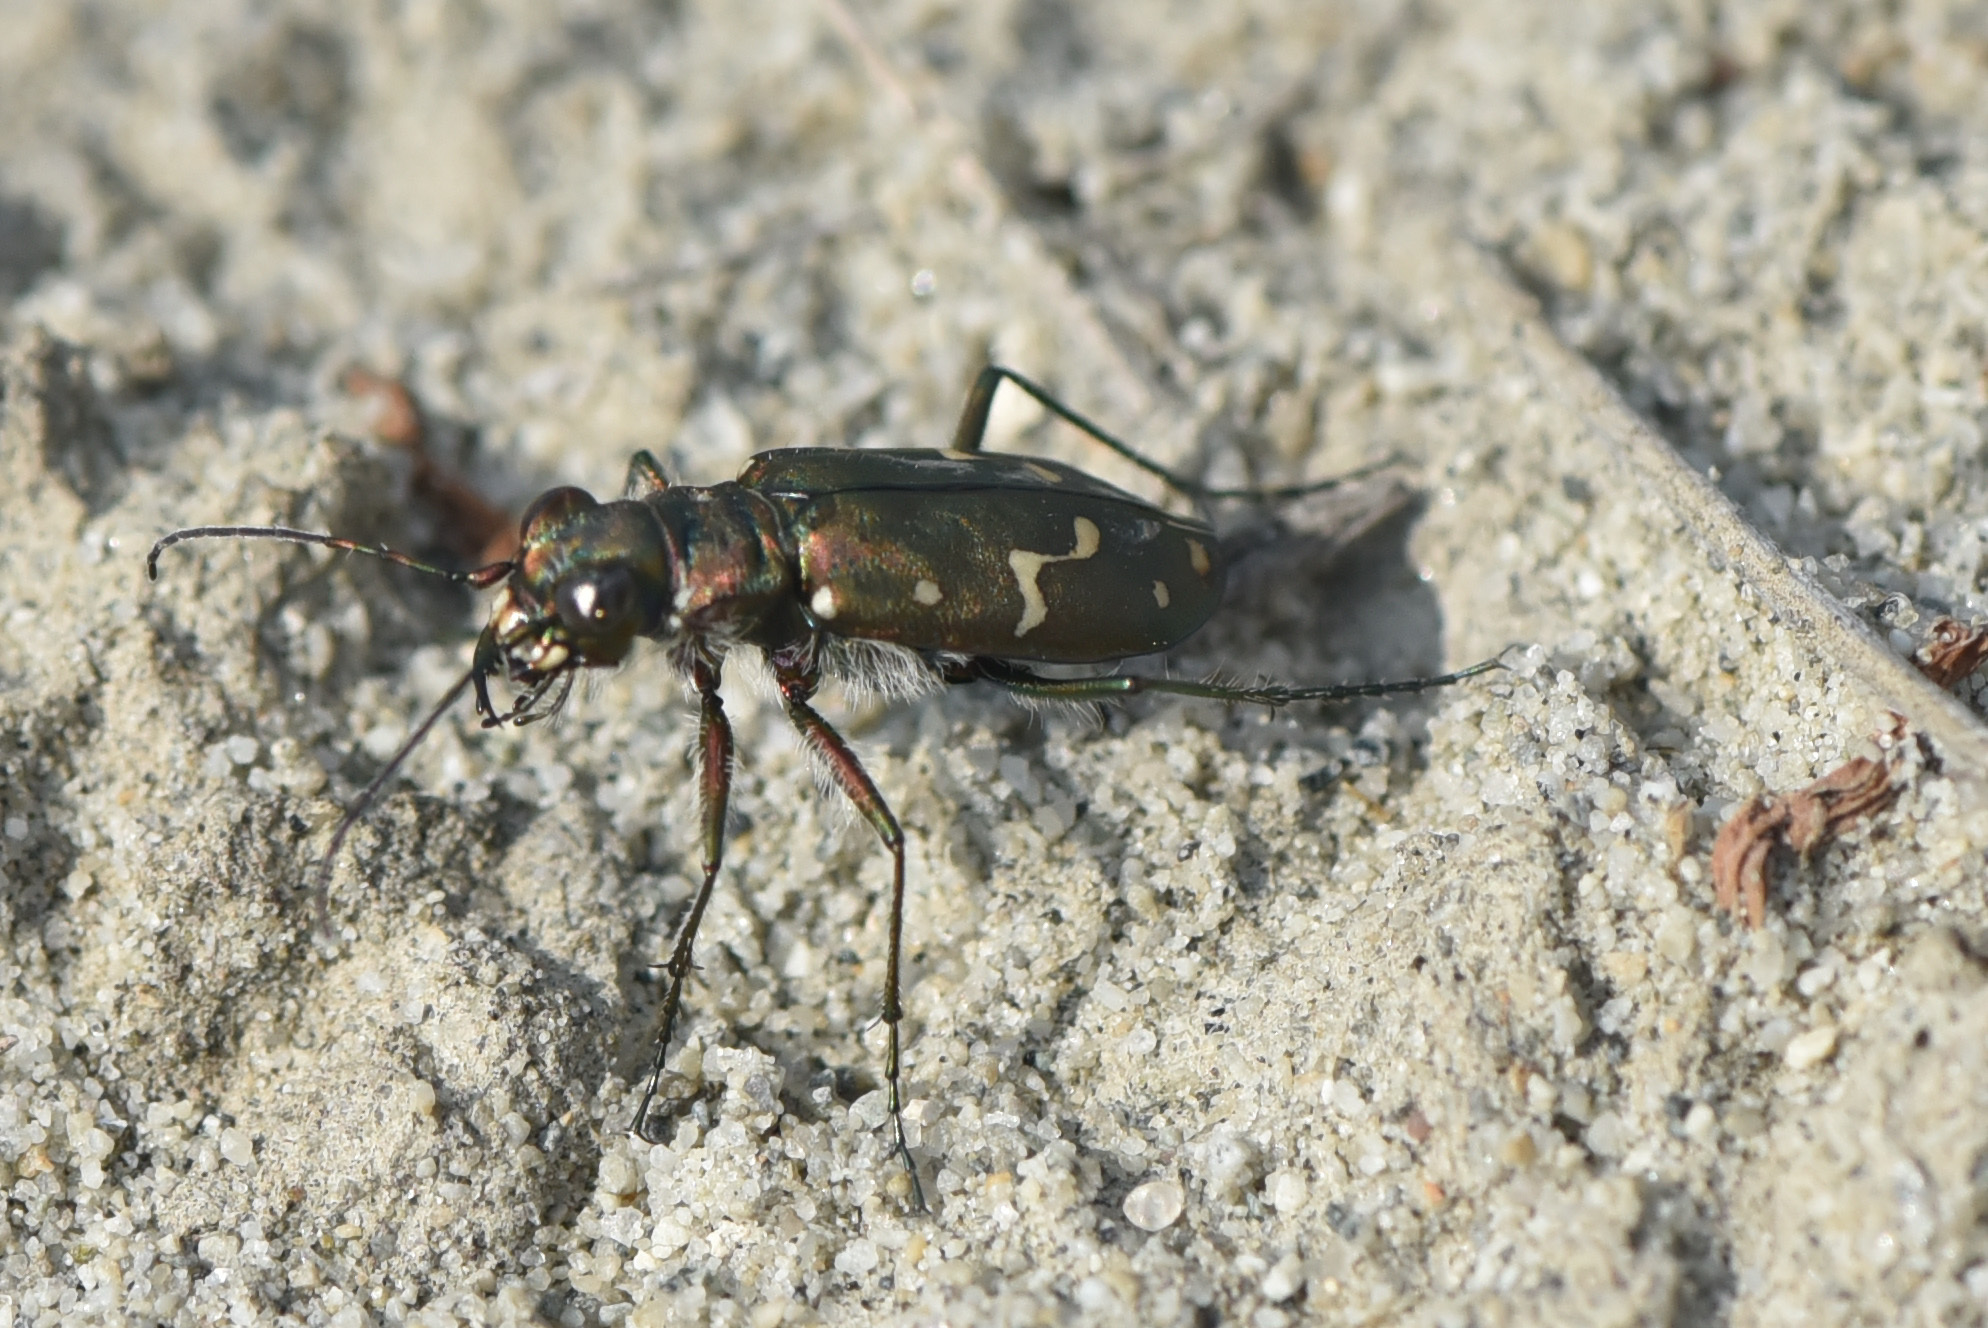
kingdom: Animalia
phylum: Arthropoda
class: Insecta
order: Coleoptera
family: Carabidae
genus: Cicindela
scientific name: Cicindela oregona
